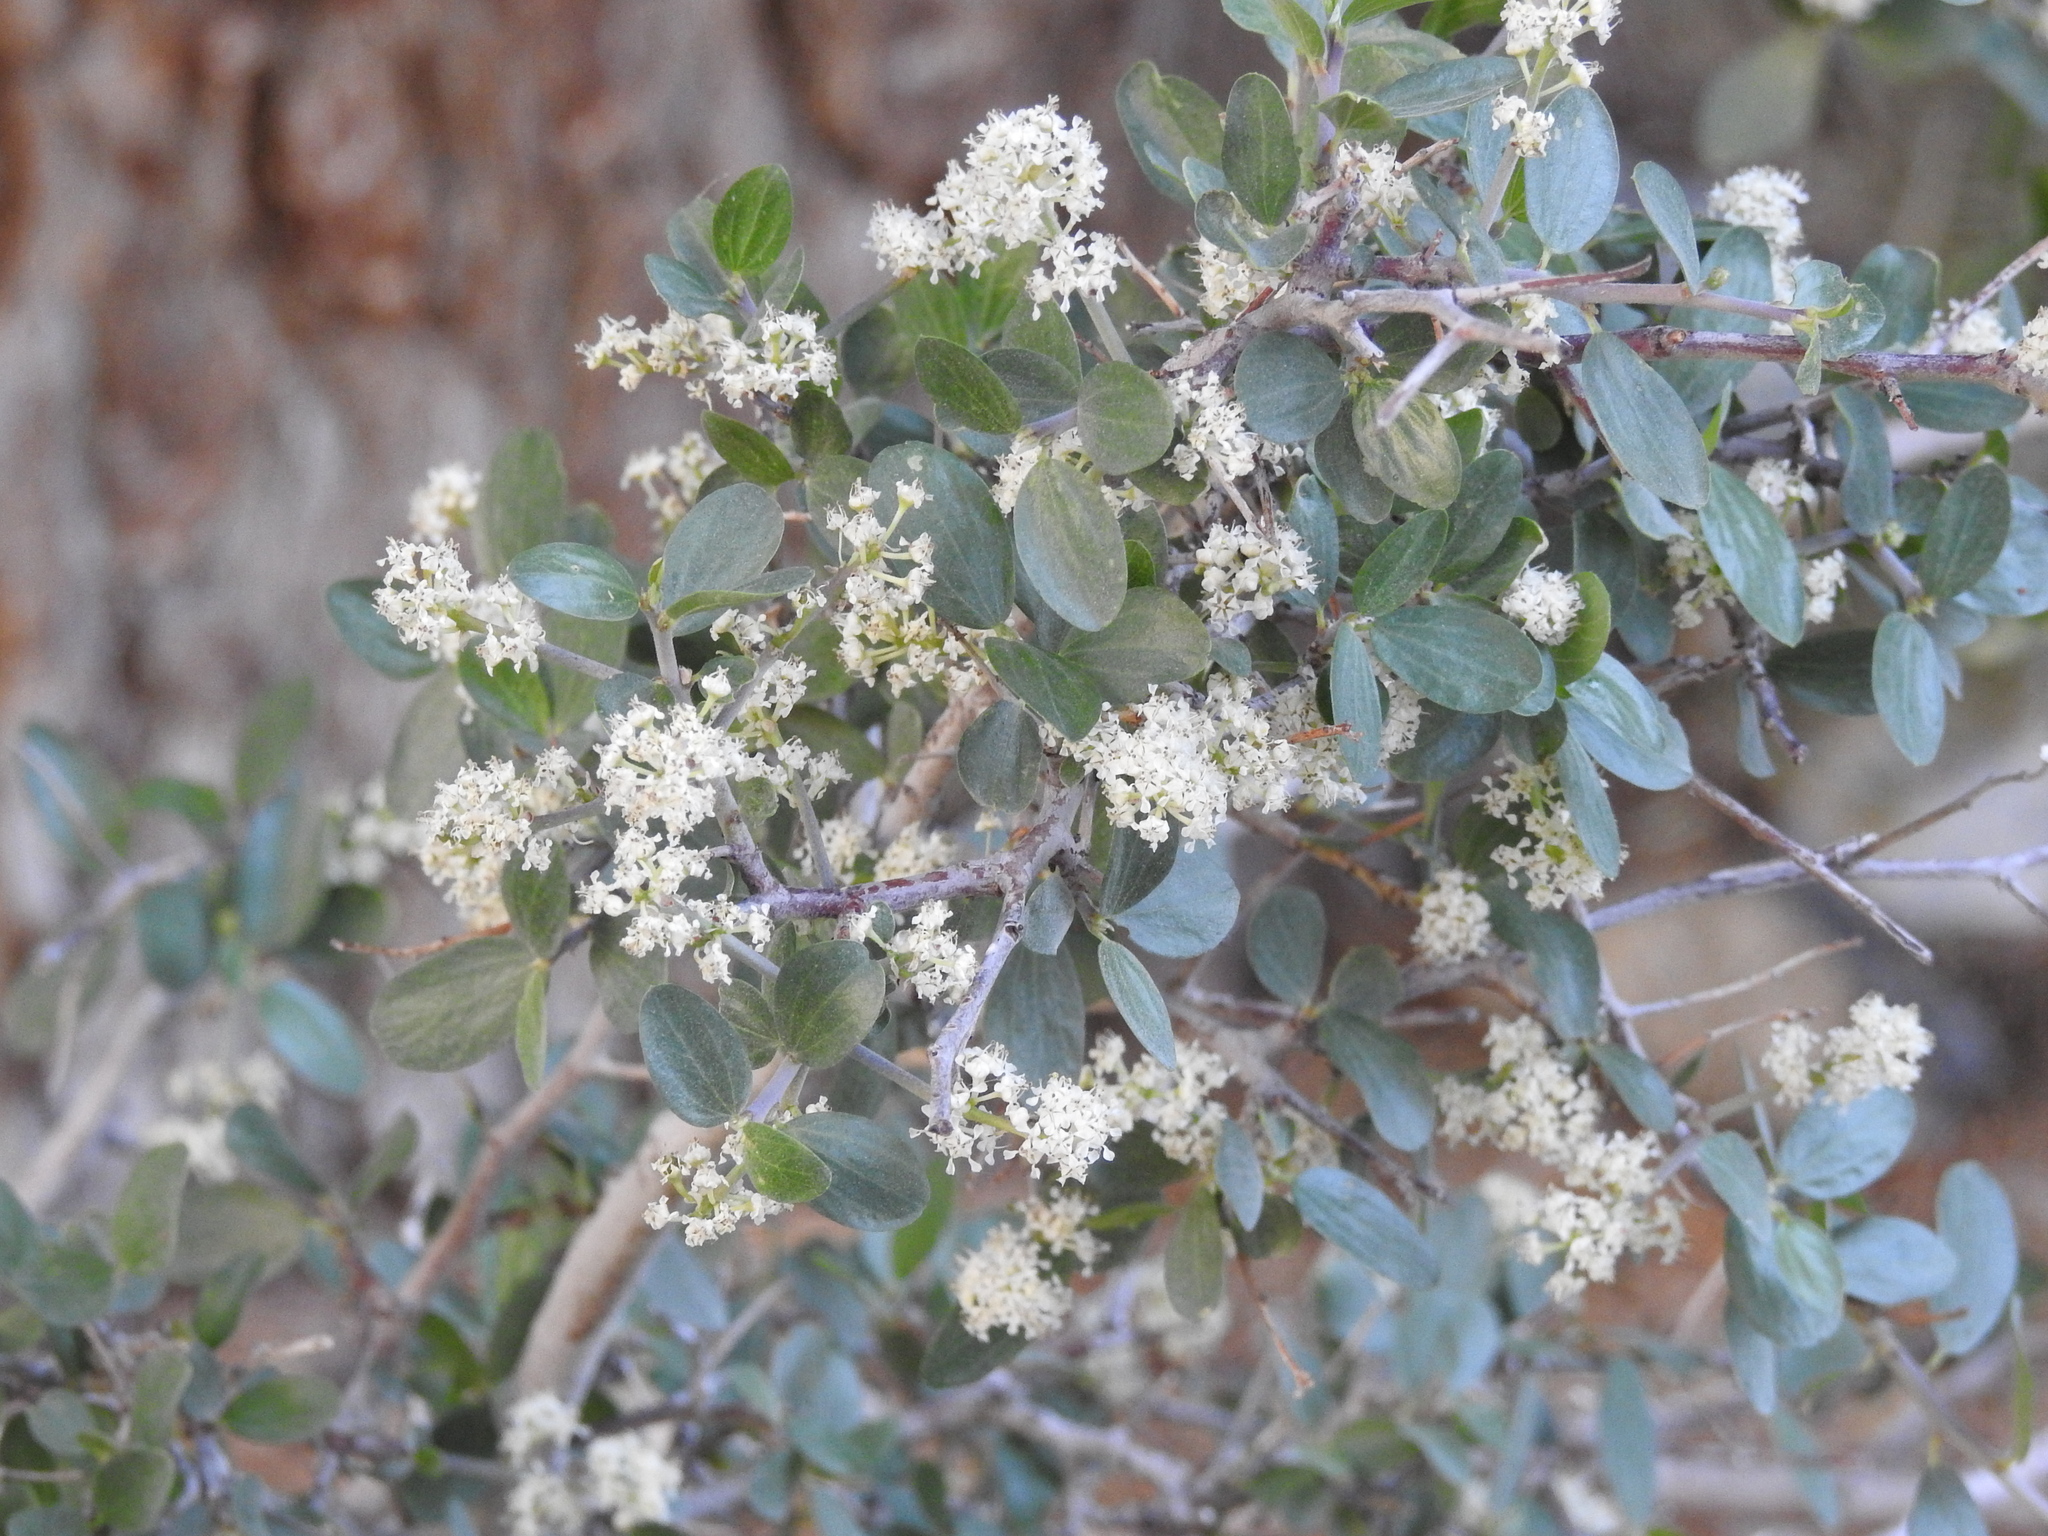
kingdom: Plantae
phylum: Tracheophyta
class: Magnoliopsida
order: Rosales
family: Rhamnaceae
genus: Ceanothus
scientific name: Ceanothus martini
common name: Martin ceanothus
